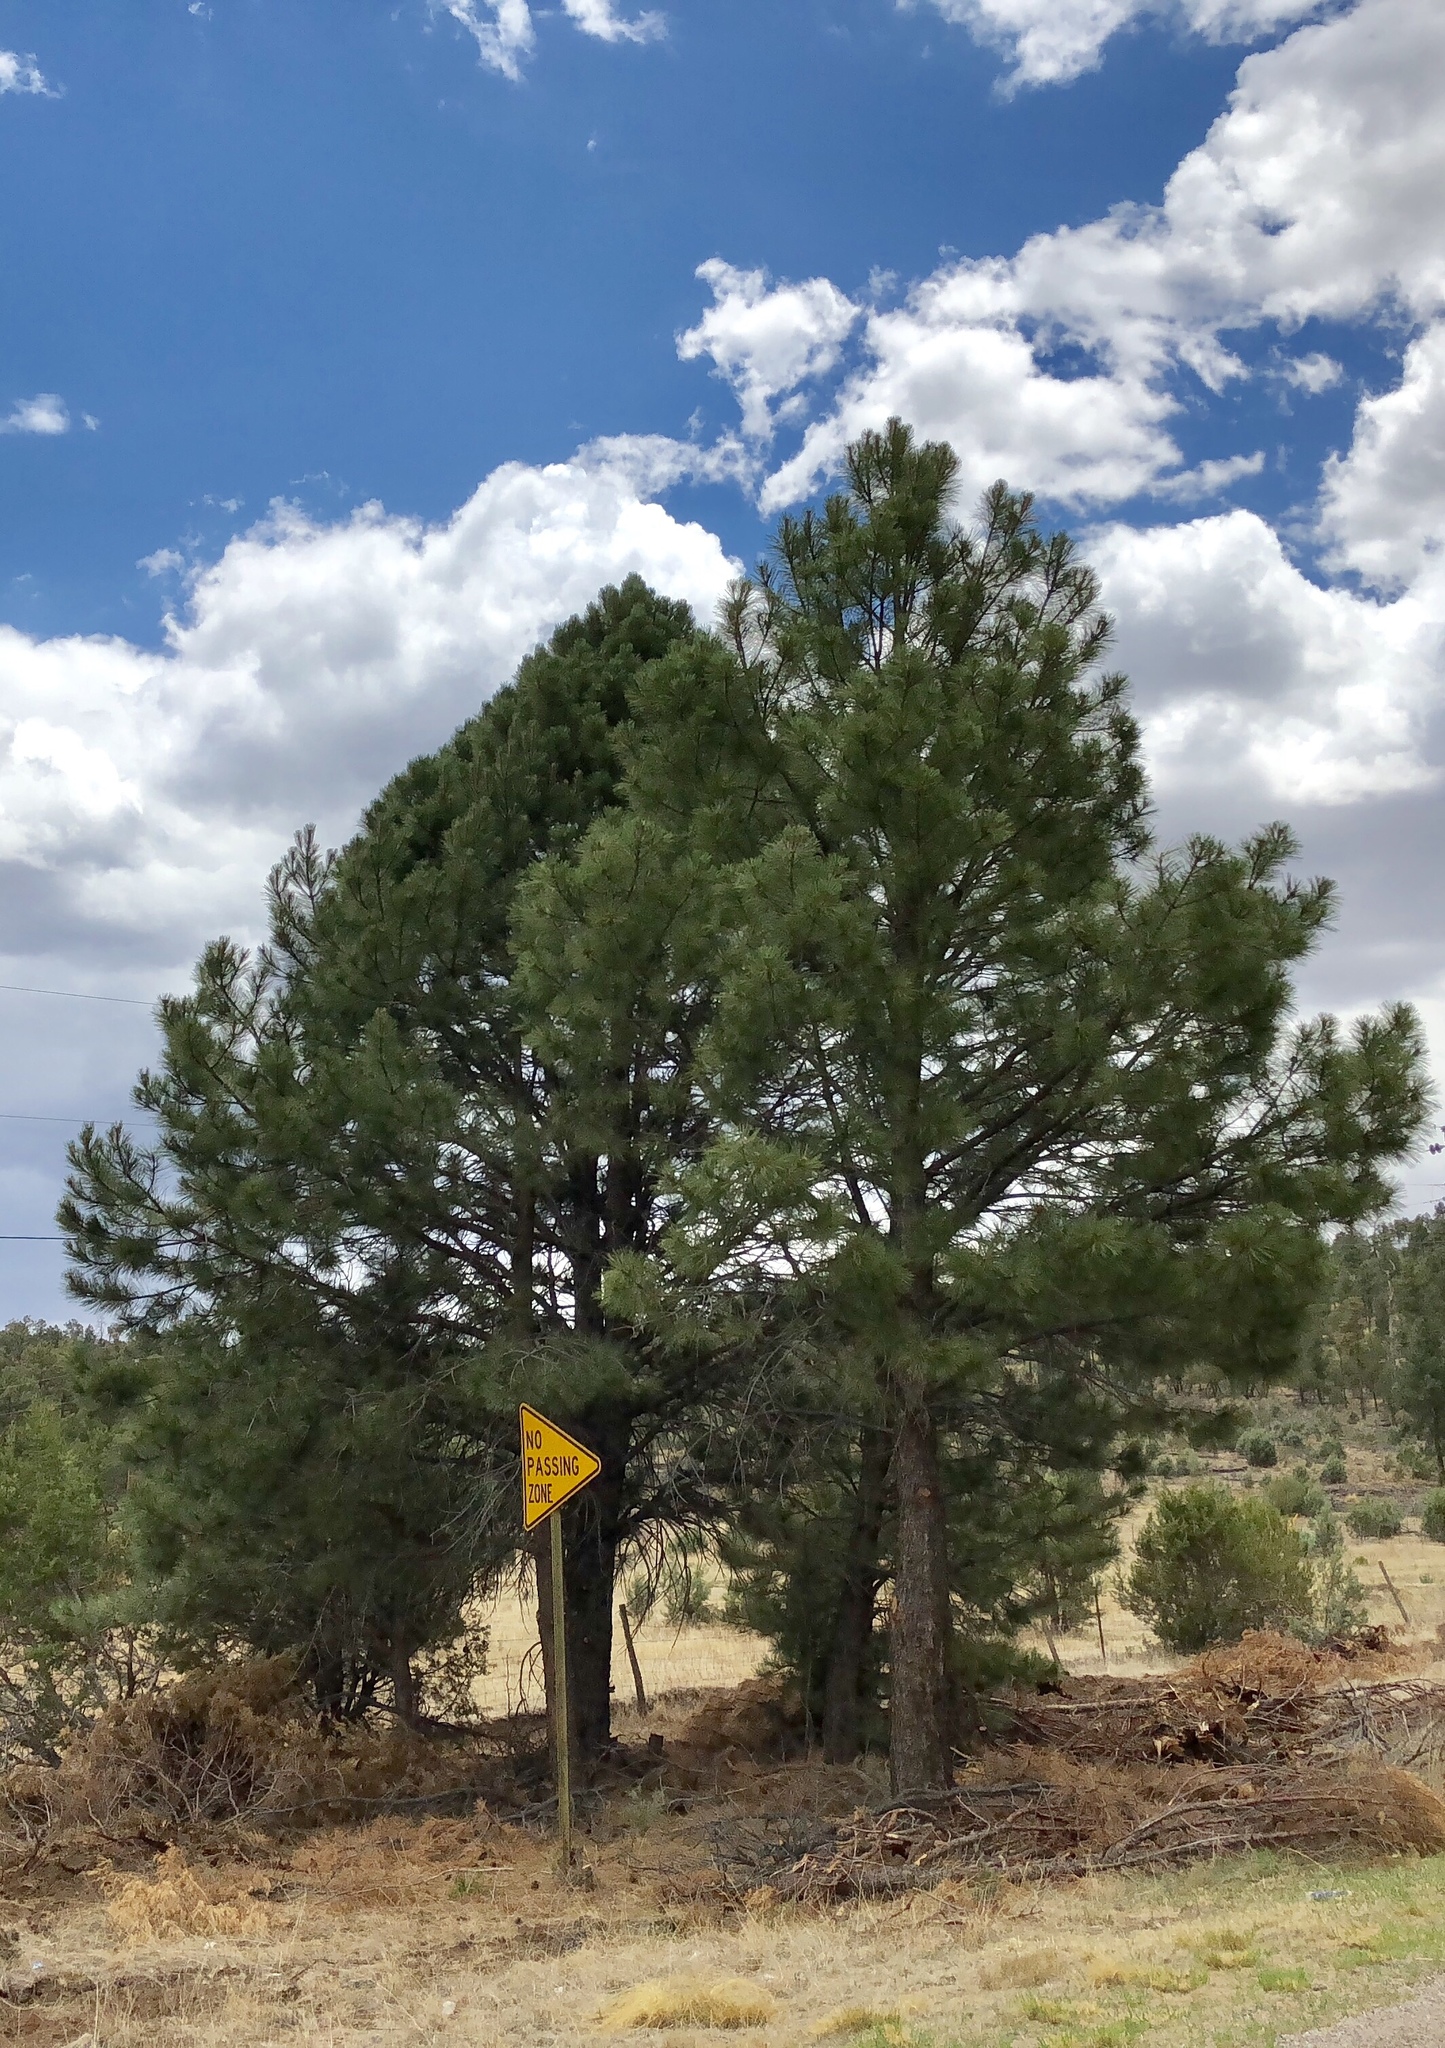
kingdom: Plantae
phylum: Tracheophyta
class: Pinopsida
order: Pinales
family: Pinaceae
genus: Pinus
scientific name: Pinus ponderosa
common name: Western yellow-pine
